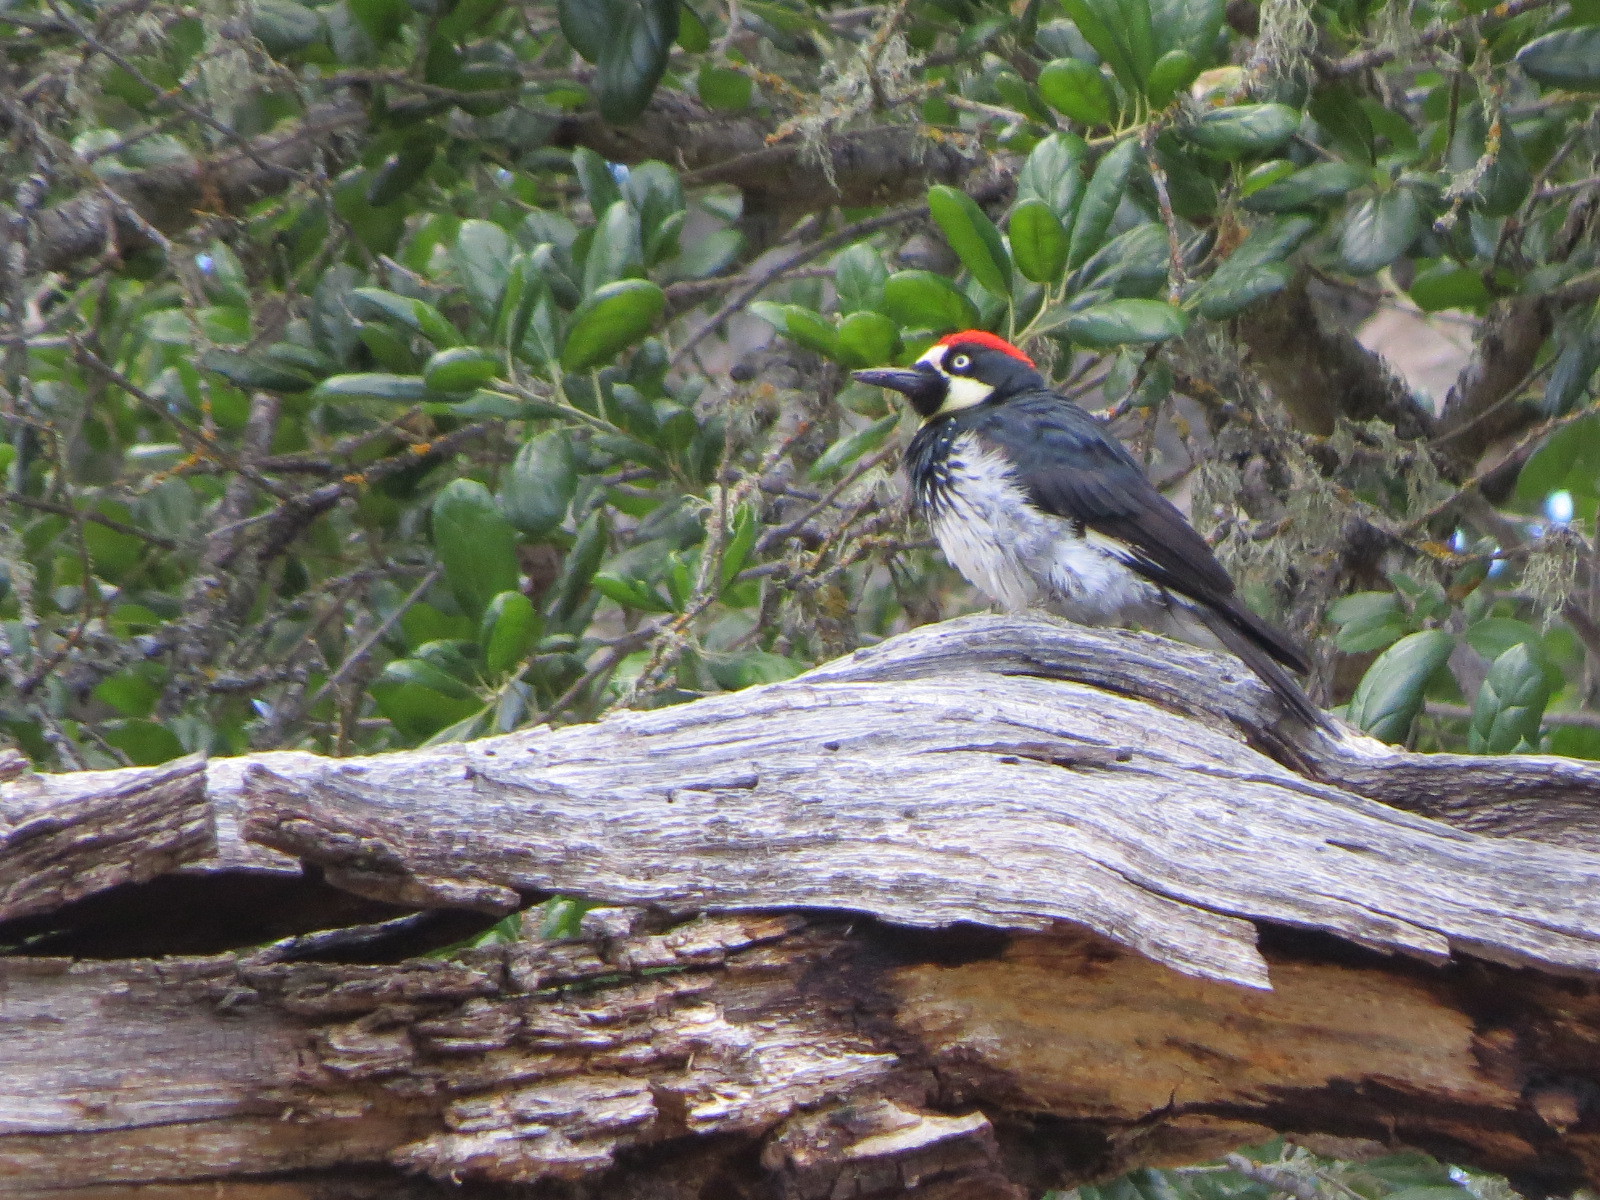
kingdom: Animalia
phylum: Chordata
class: Aves
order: Piciformes
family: Picidae
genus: Melanerpes
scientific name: Melanerpes formicivorus
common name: Acorn woodpecker
